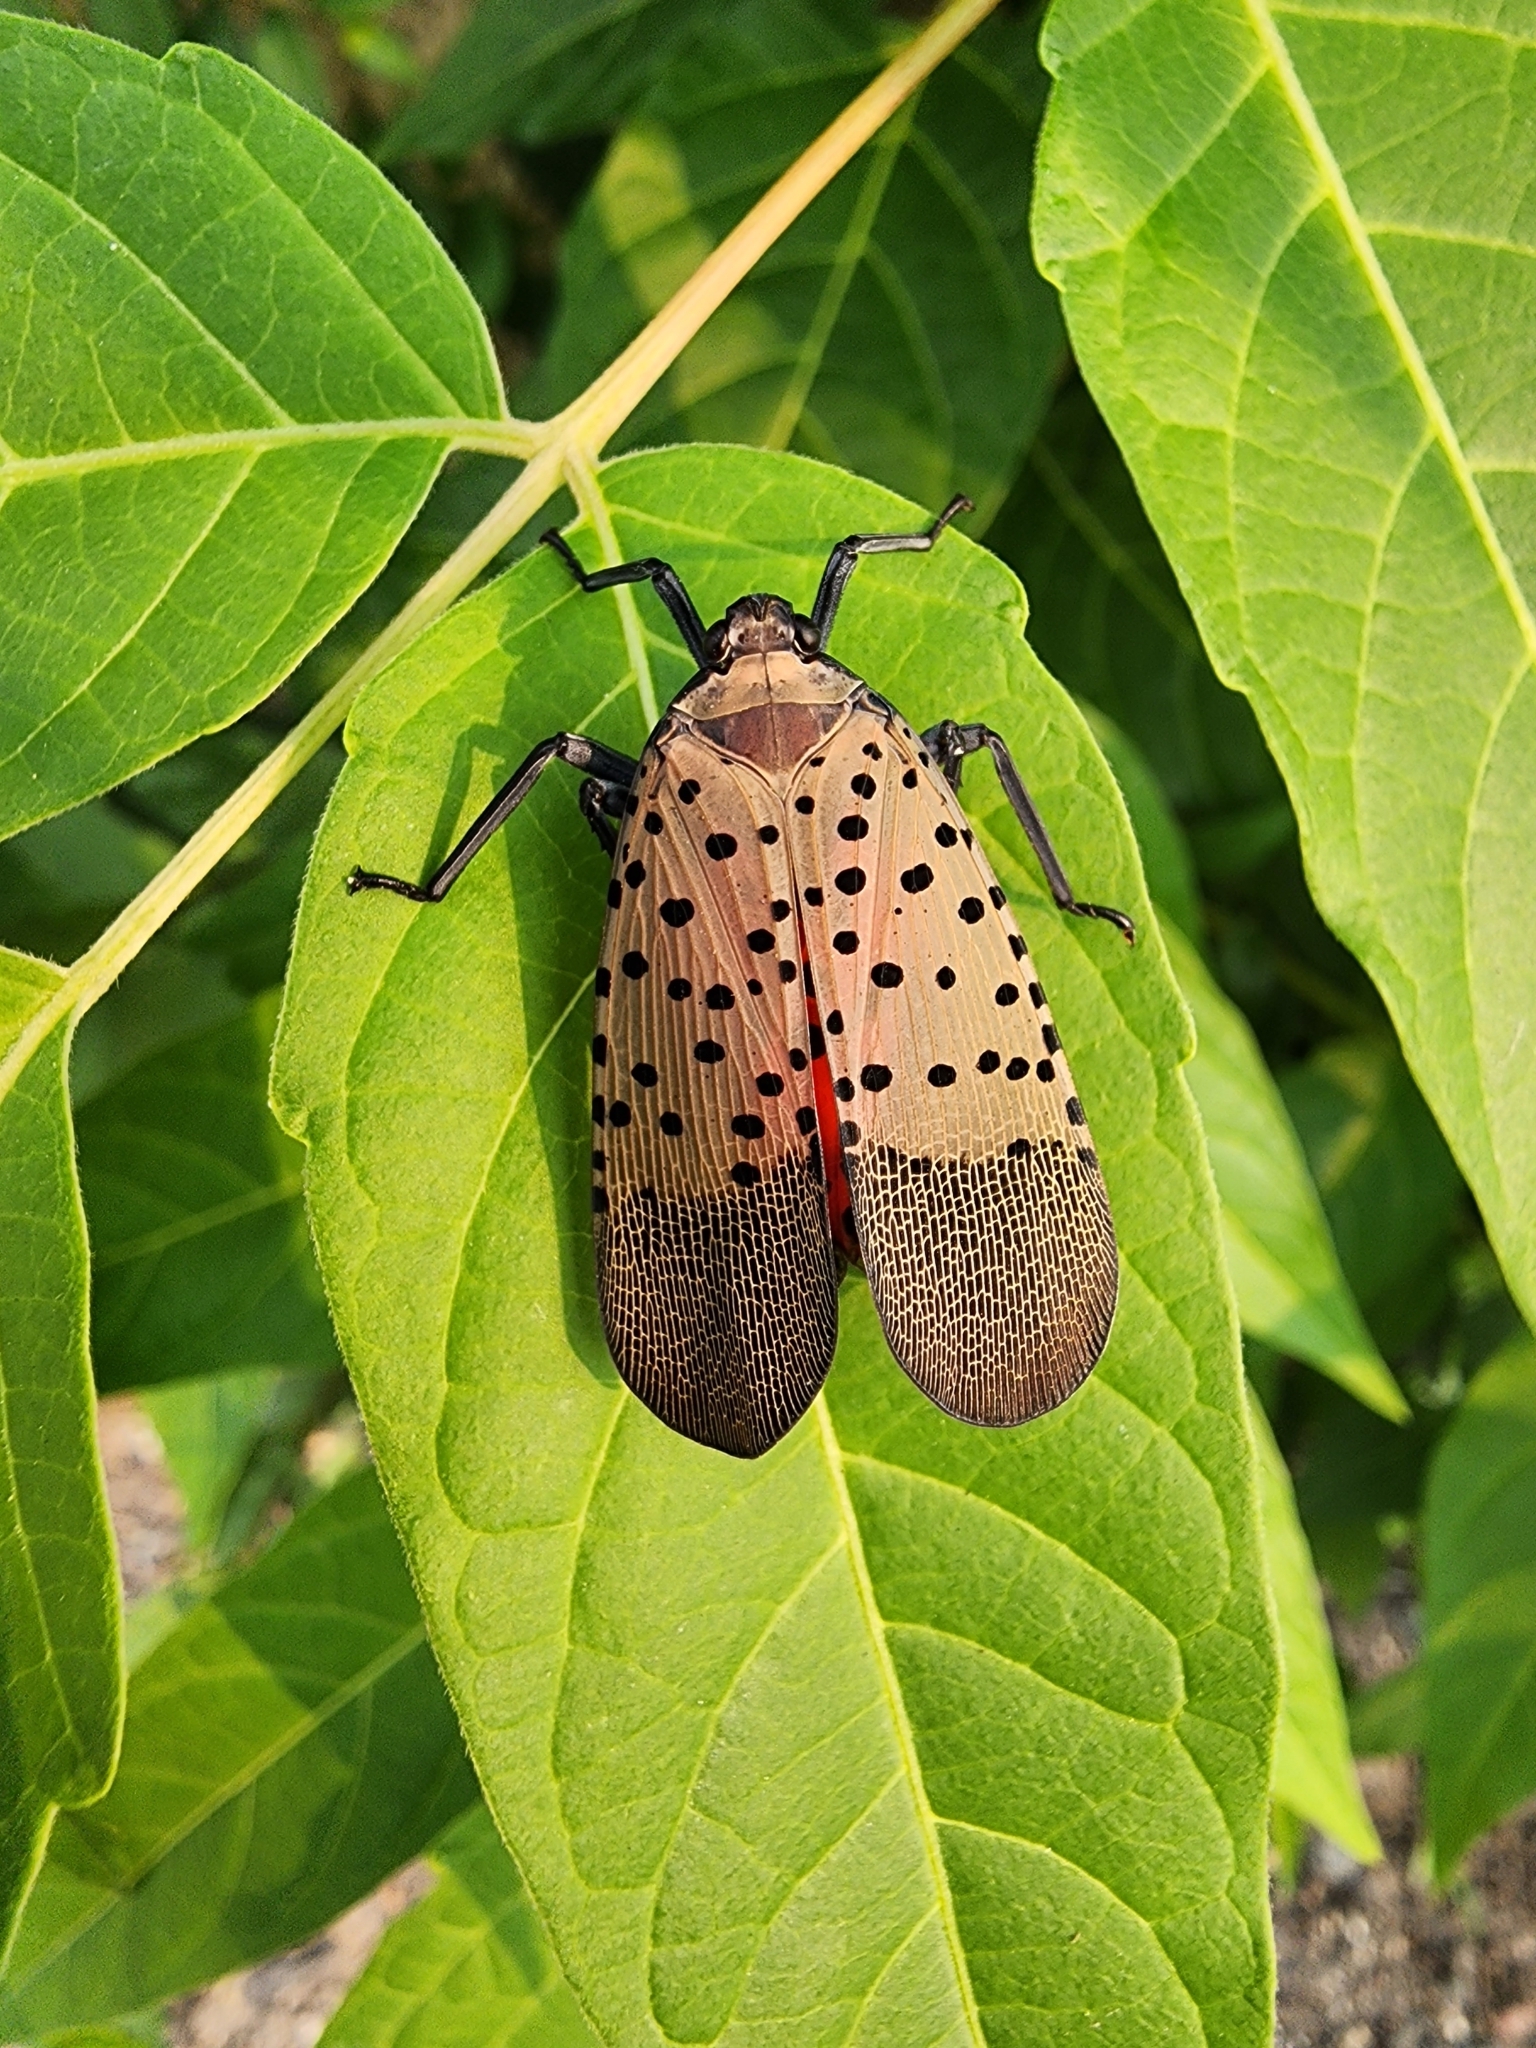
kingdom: Animalia
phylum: Arthropoda
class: Insecta
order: Hemiptera
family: Fulgoridae
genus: Lycorma
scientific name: Lycorma delicatula
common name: Spotted lanternfly
